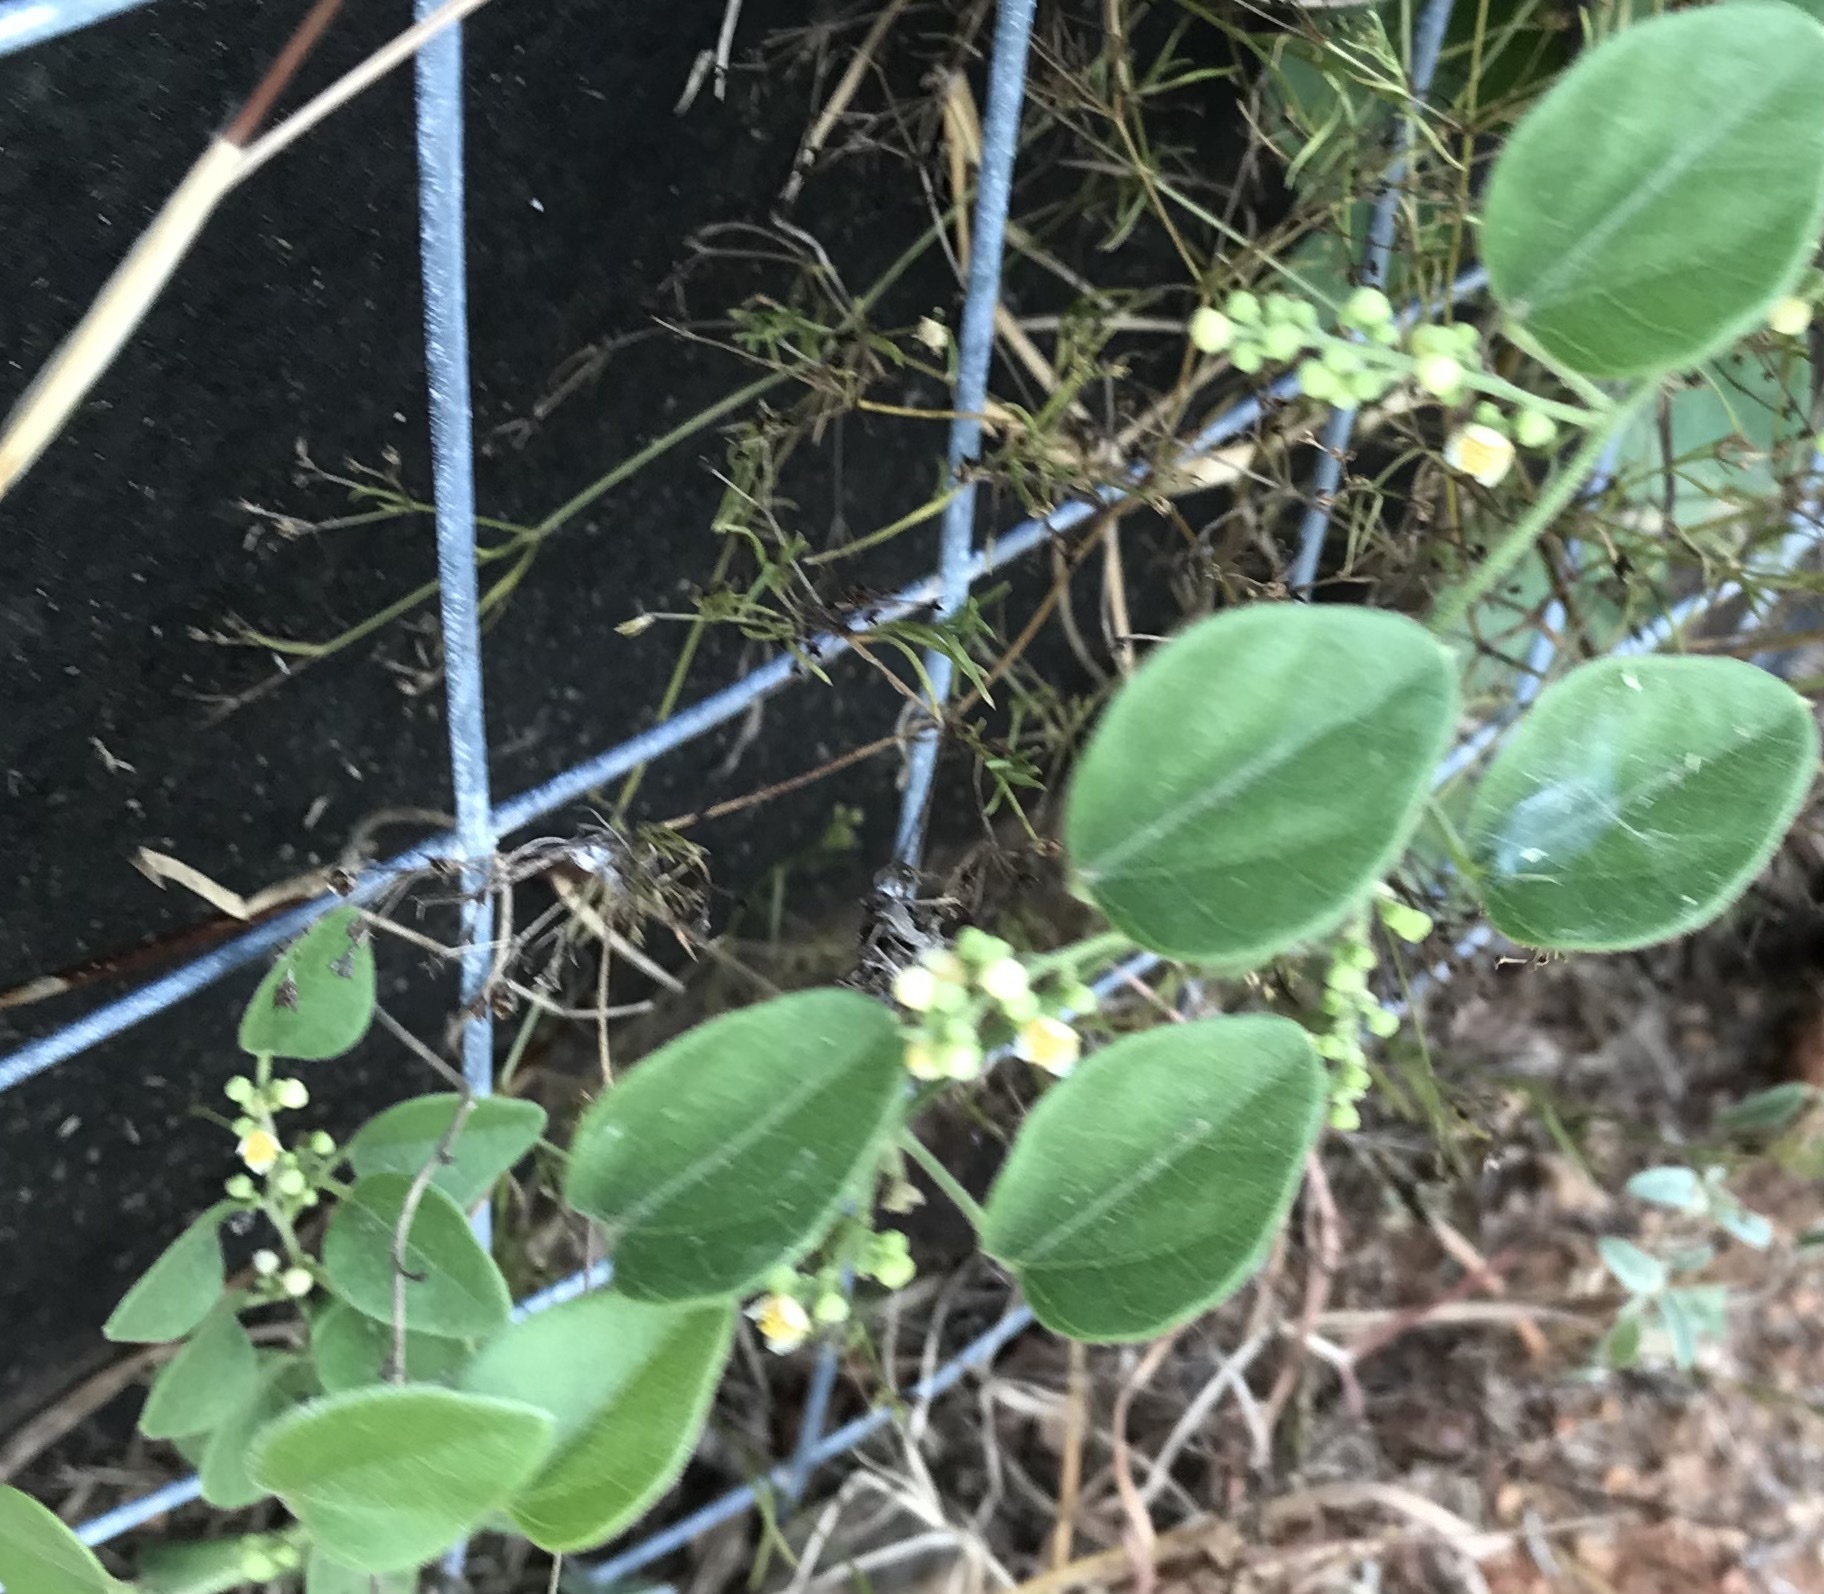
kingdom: Plantae
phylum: Tracheophyta
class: Magnoliopsida
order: Ranunculales
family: Menispermaceae
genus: Cocculus
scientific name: Cocculus carolinus
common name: Carolina moonseed
